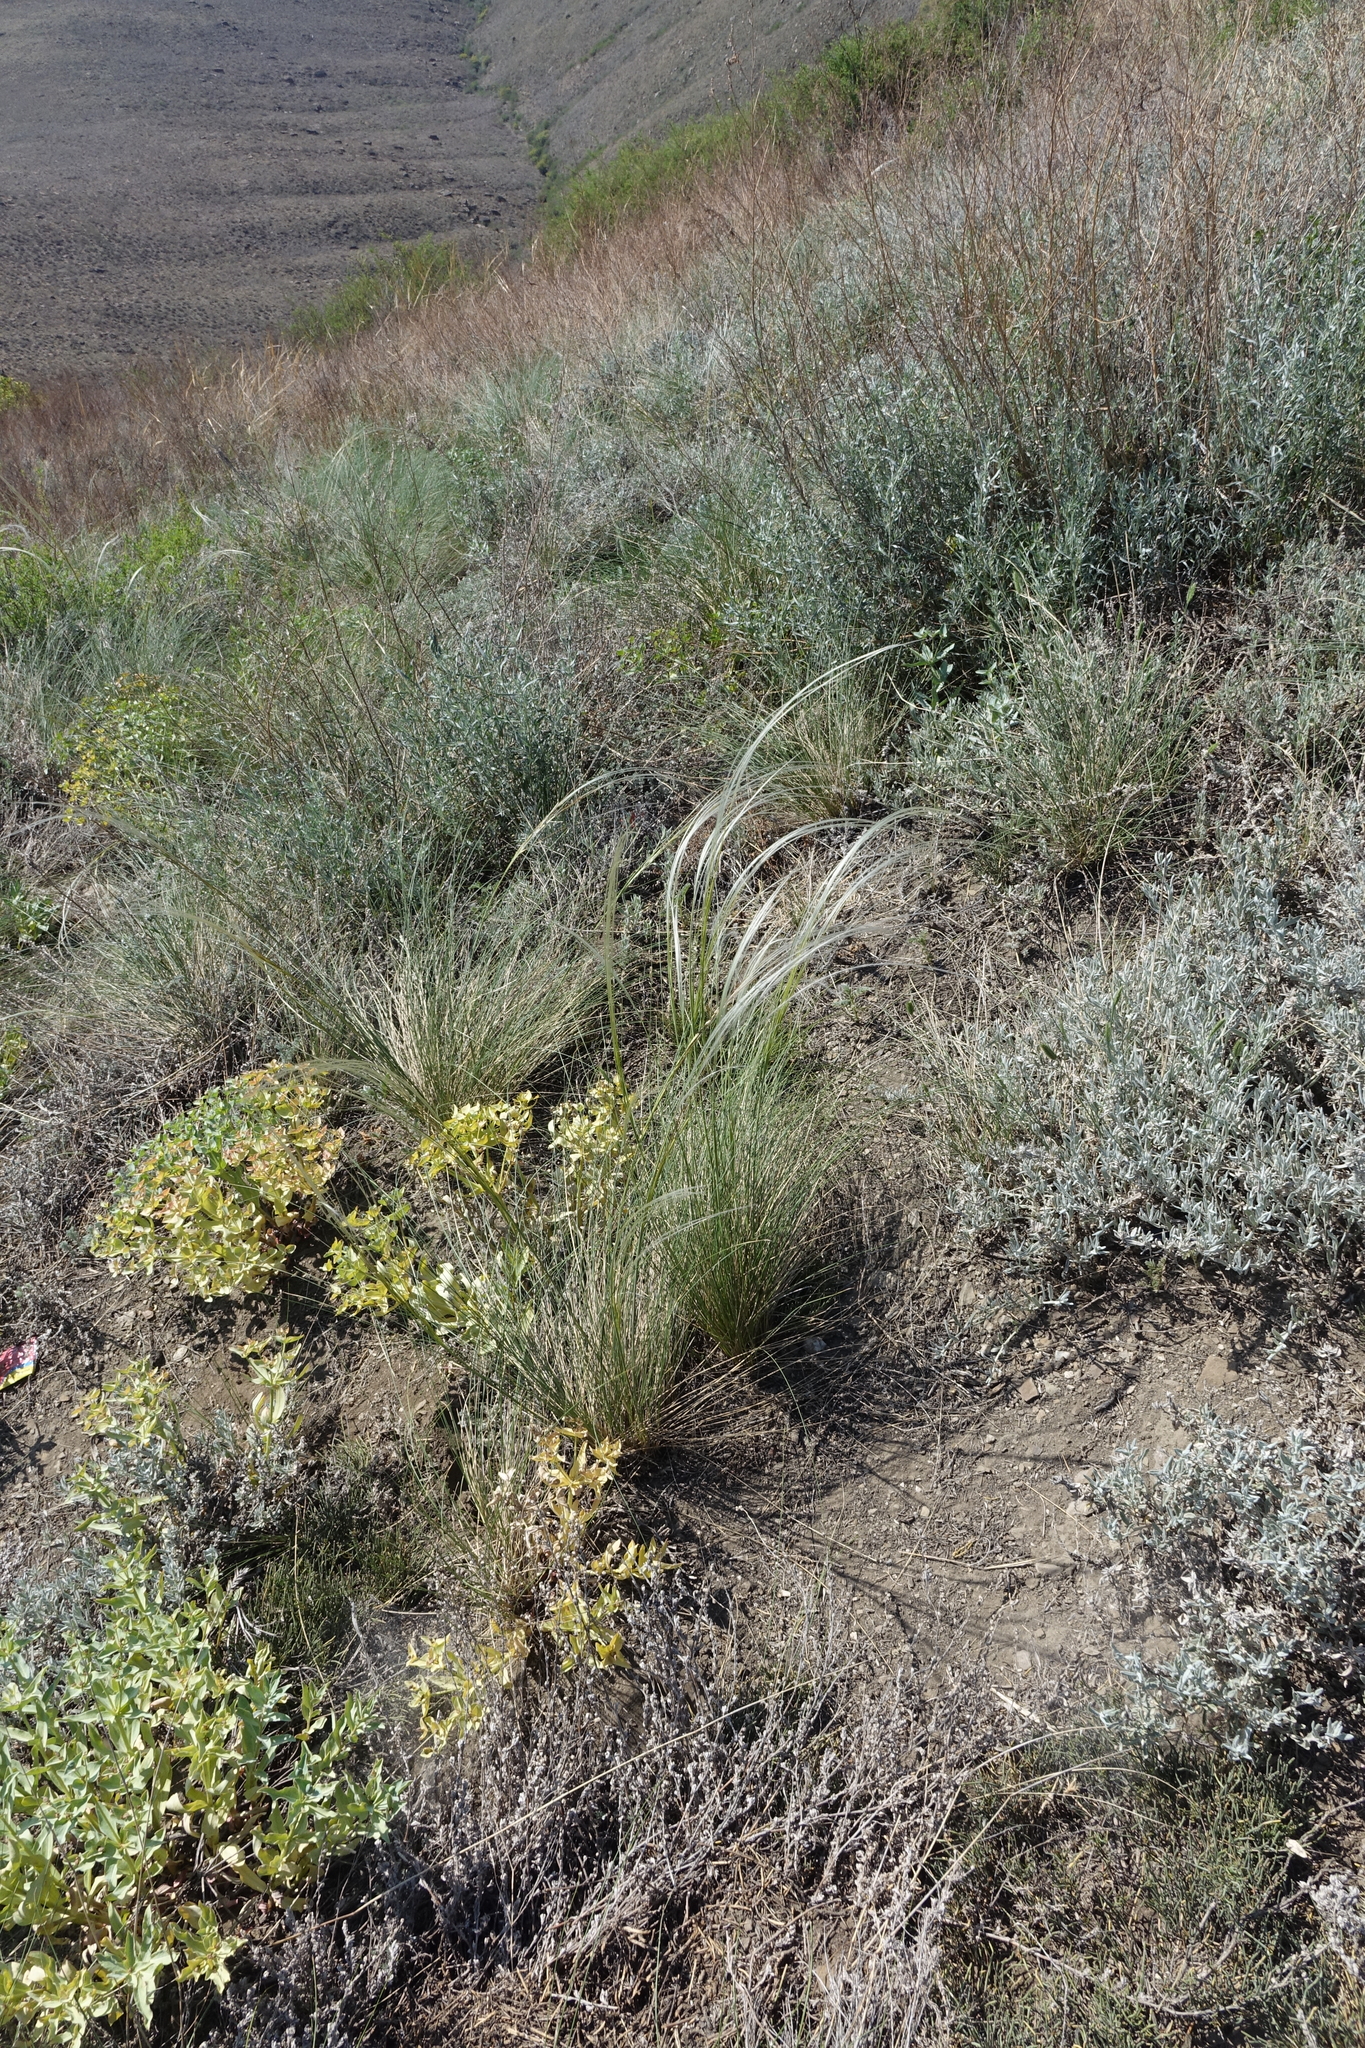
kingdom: Plantae
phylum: Tracheophyta
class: Magnoliopsida
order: Malpighiales
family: Euphorbiaceae
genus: Euphorbia
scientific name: Euphorbia mongolica
